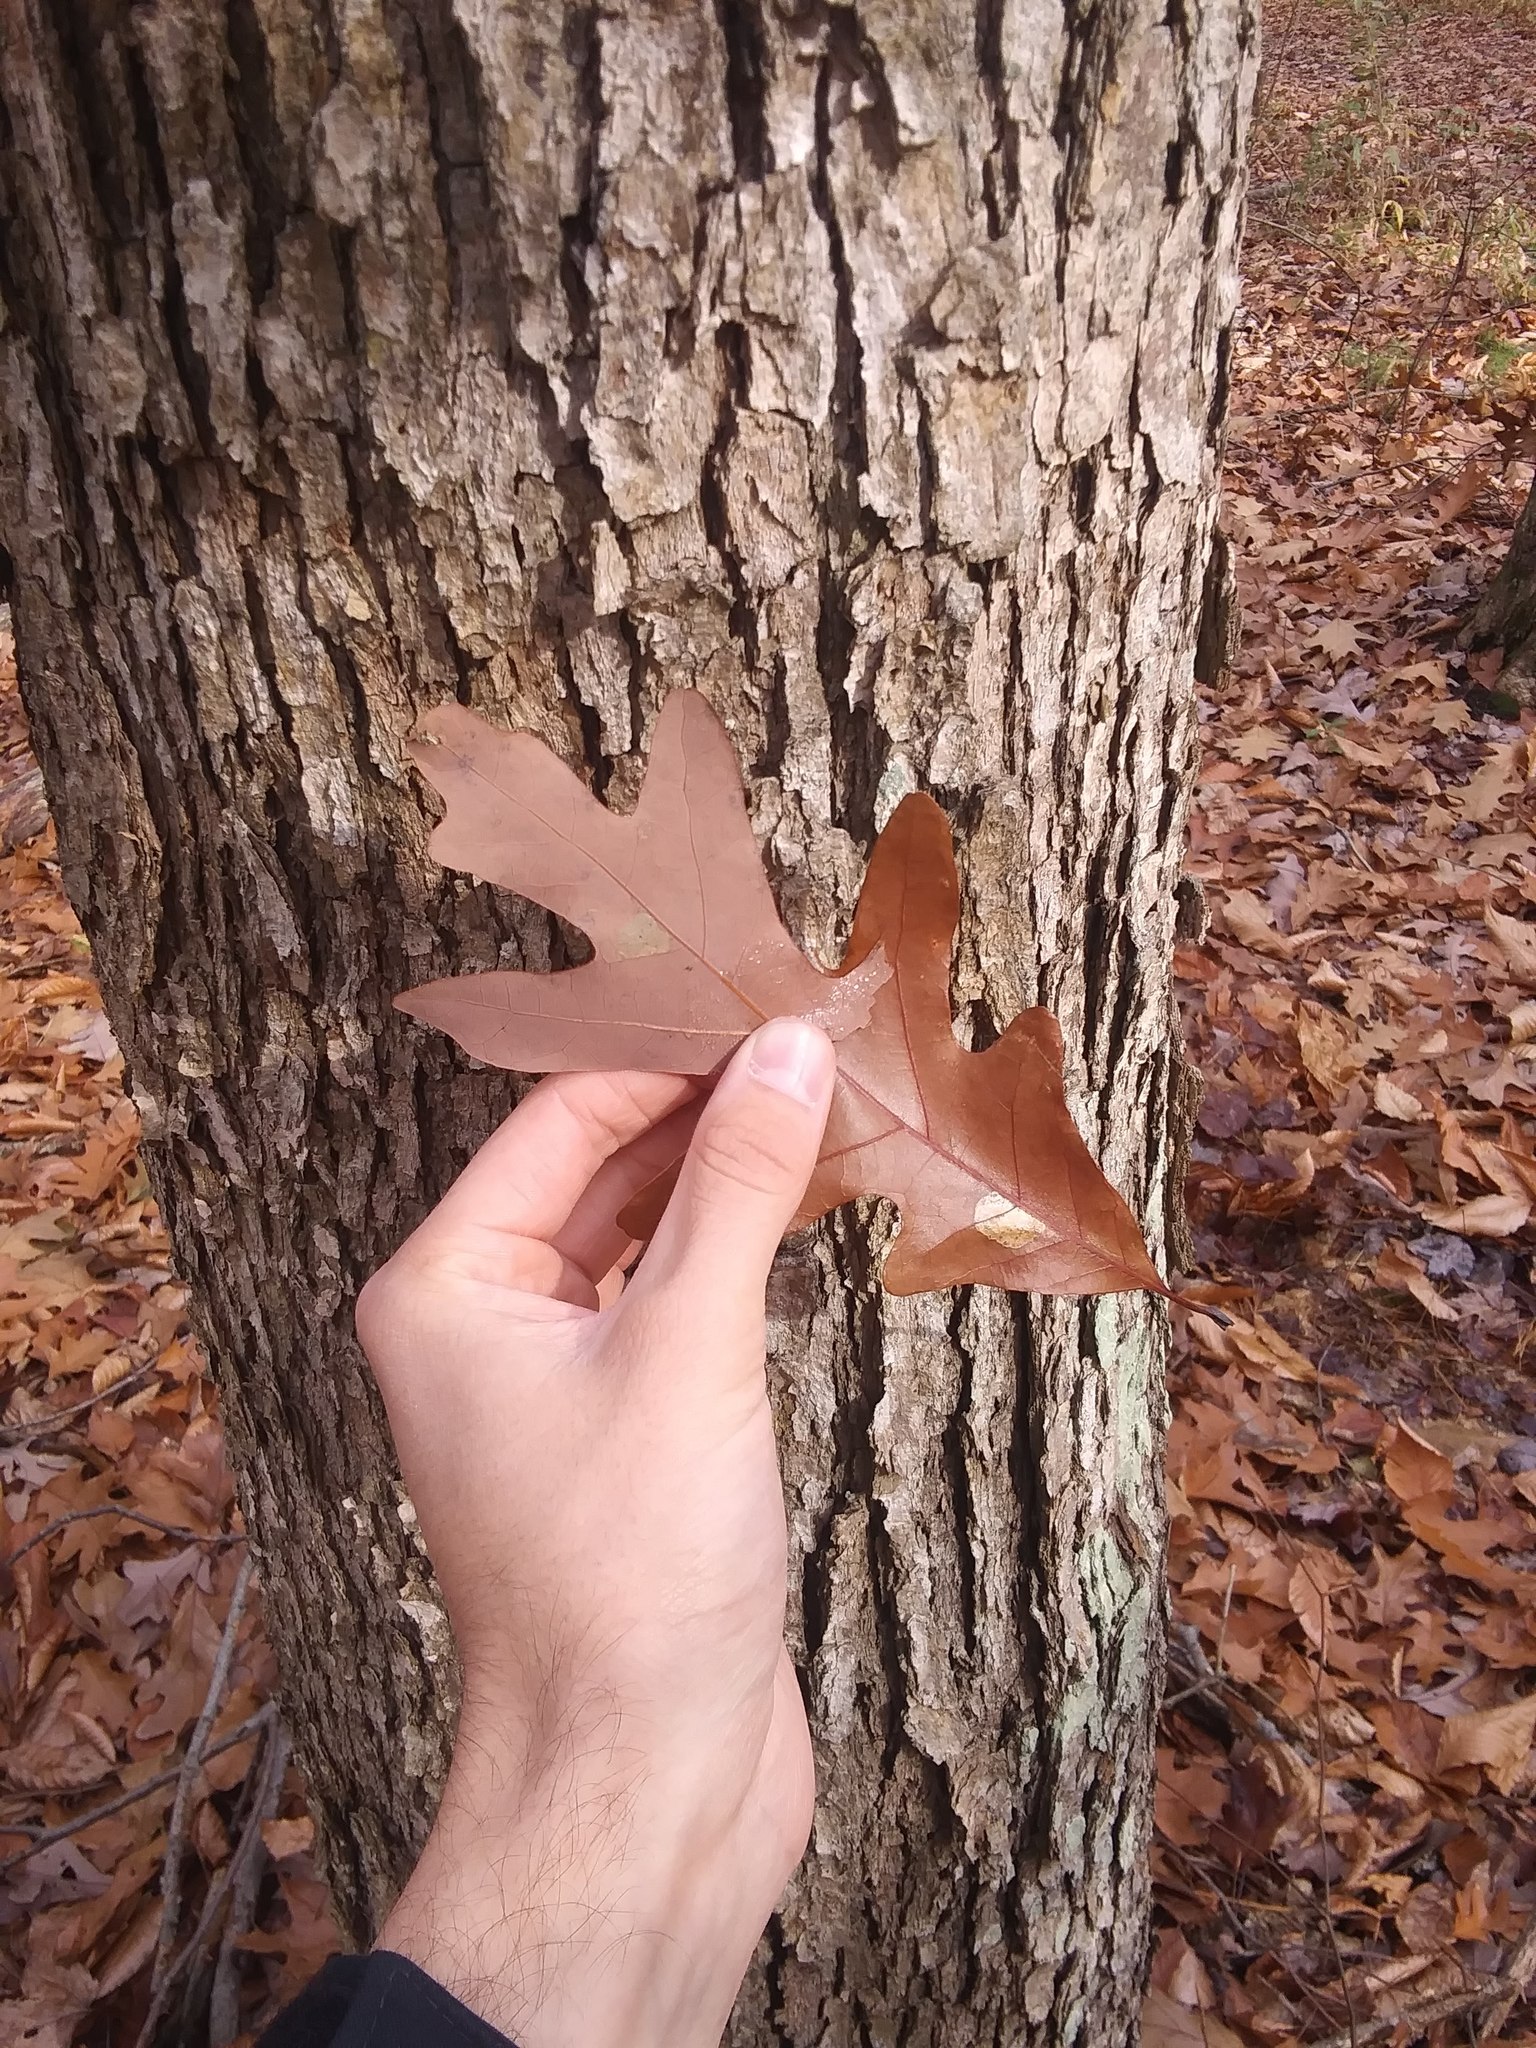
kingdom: Plantae
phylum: Tracheophyta
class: Magnoliopsida
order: Fagales
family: Fagaceae
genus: Quercus
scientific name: Quercus alba
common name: White oak
